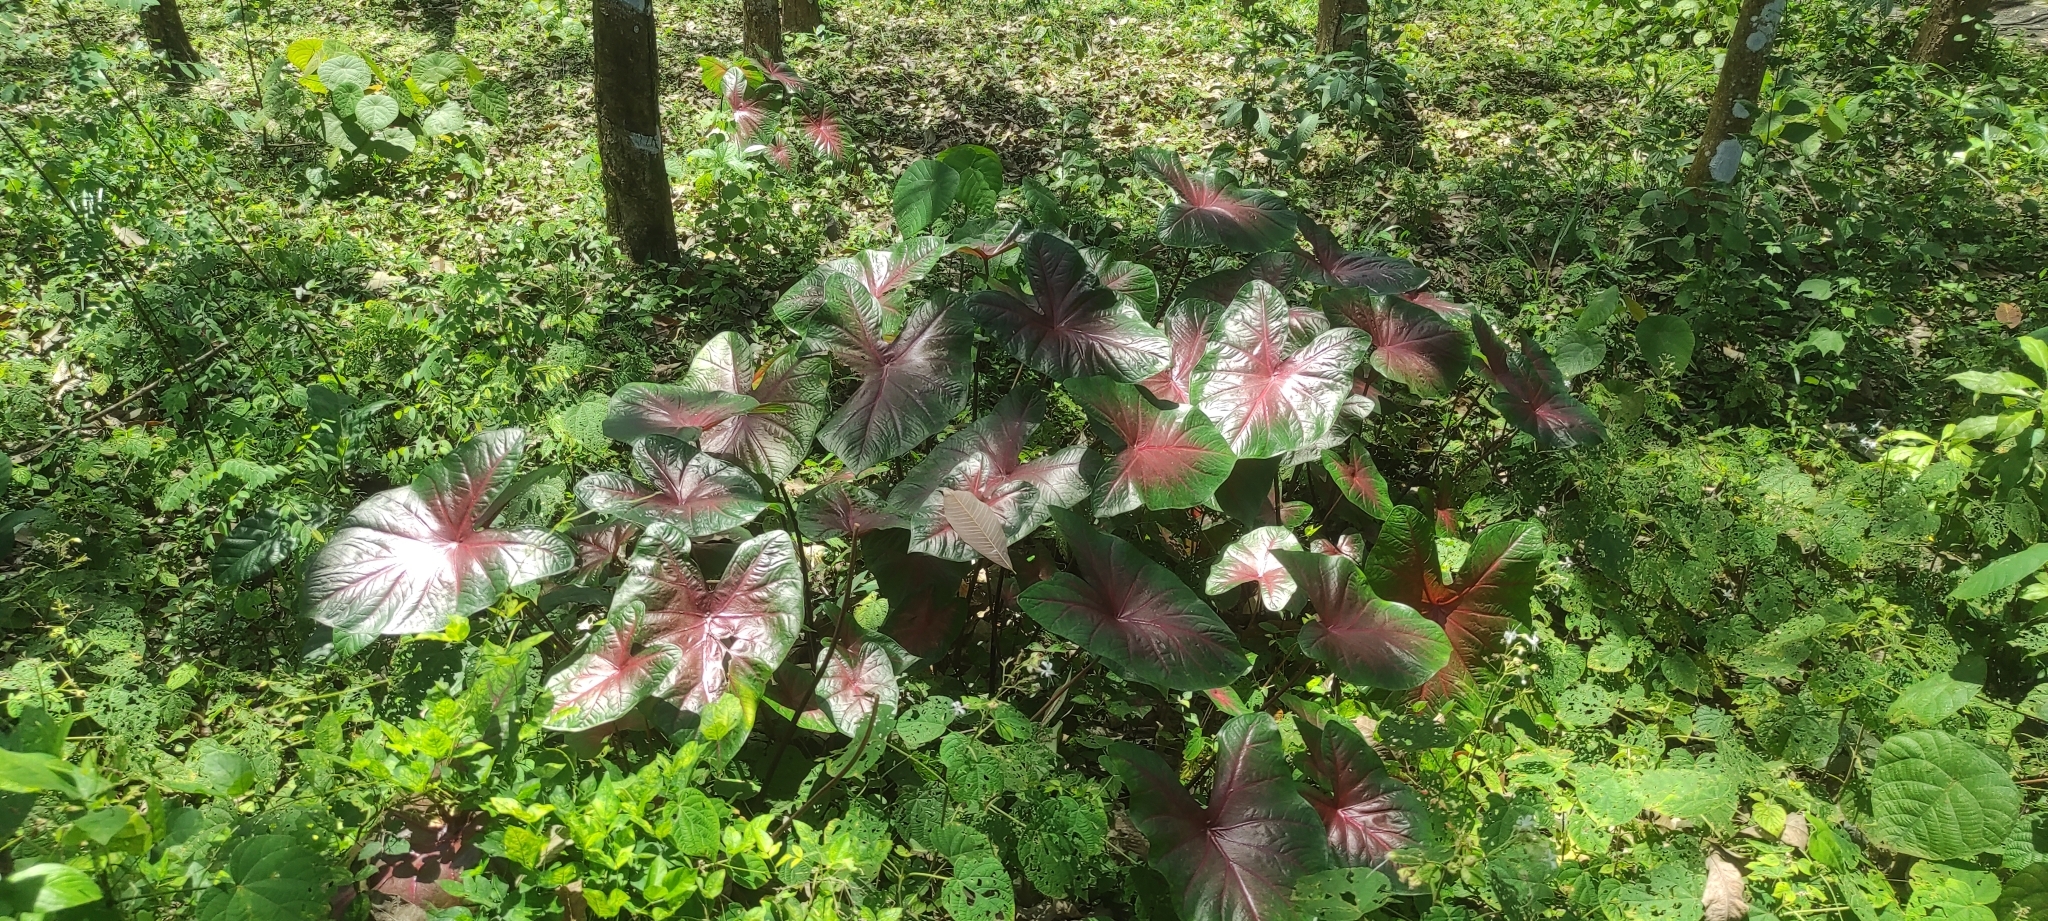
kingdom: Plantae
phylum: Tracheophyta
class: Liliopsida
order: Alismatales
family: Araceae
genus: Caladium
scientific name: Caladium bicolor
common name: Artist's pallet
